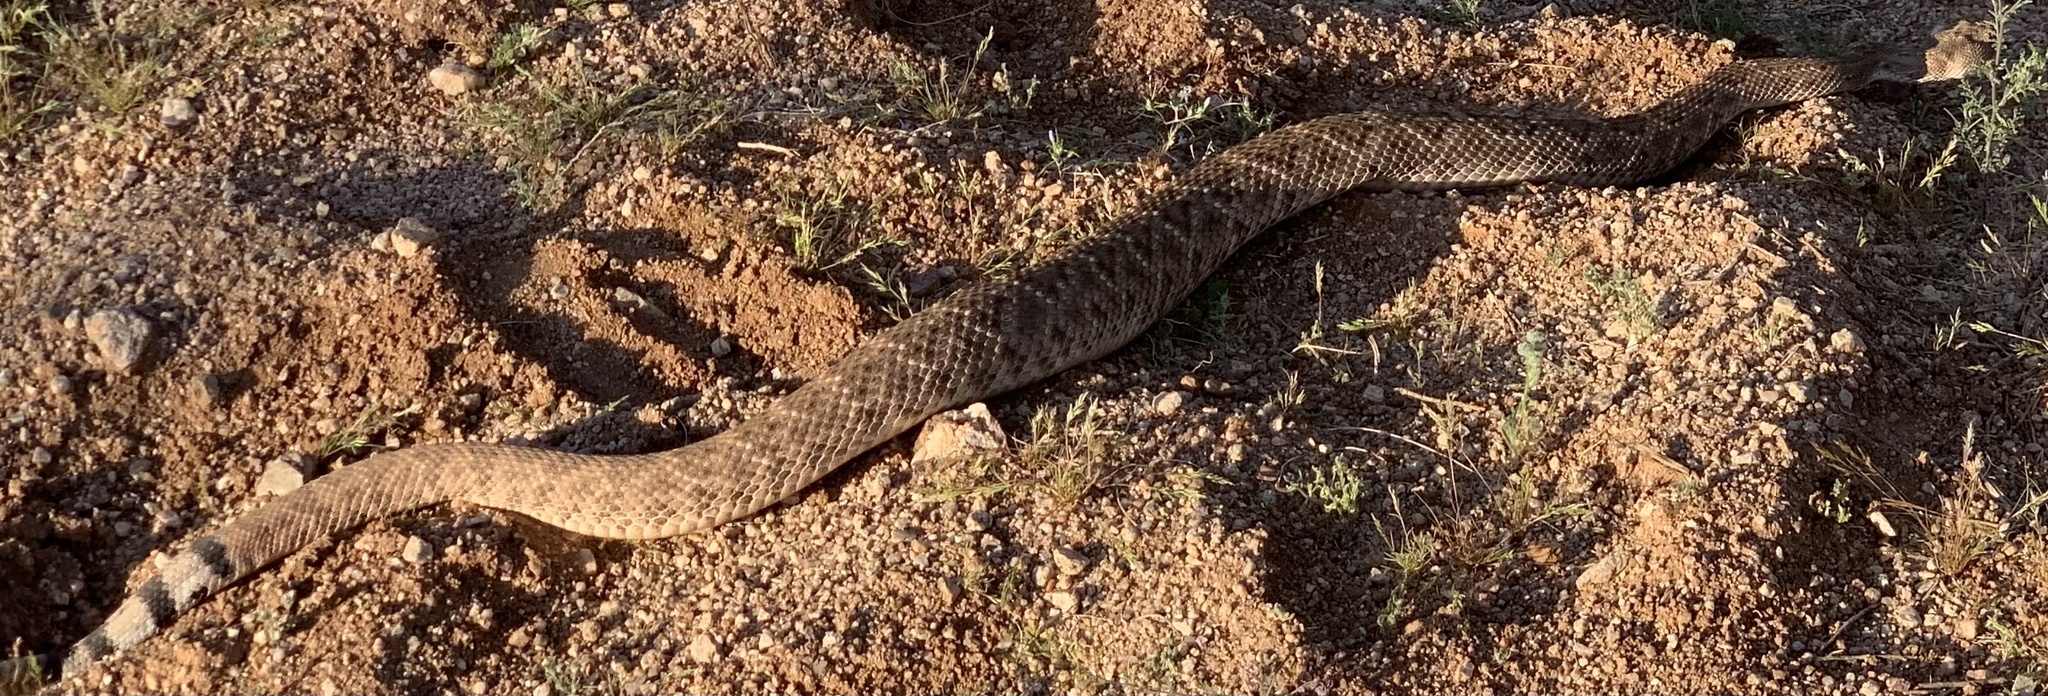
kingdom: Animalia
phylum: Chordata
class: Squamata
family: Viperidae
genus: Crotalus
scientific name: Crotalus atrox
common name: Western diamond-backed rattlesnake
